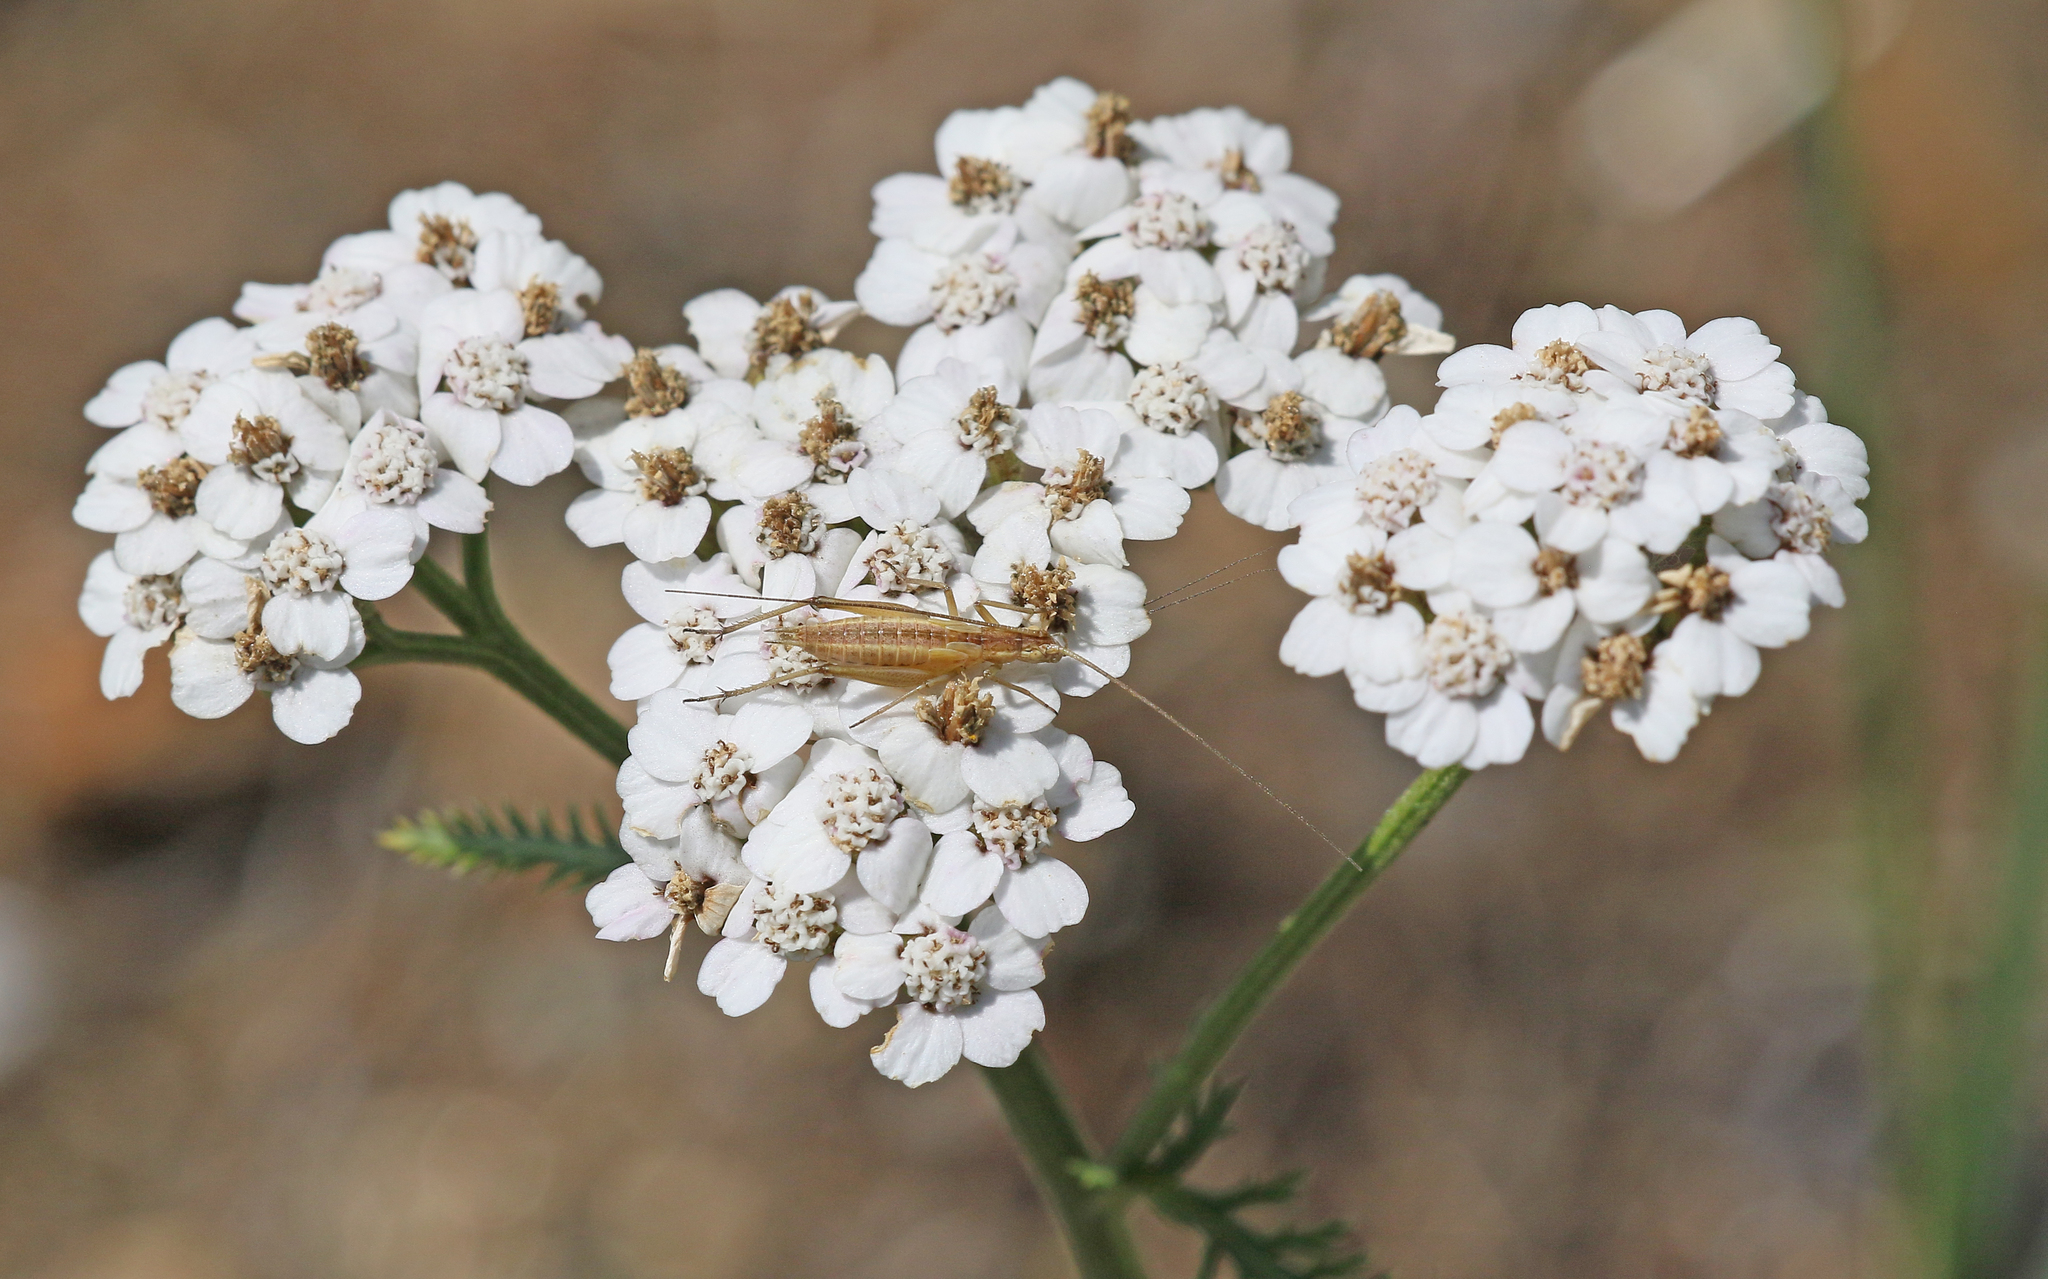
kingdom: Animalia
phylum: Arthropoda
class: Insecta
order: Orthoptera
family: Gryllidae
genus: Oecanthus
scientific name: Oecanthus pellucens
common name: Tree-cricket
